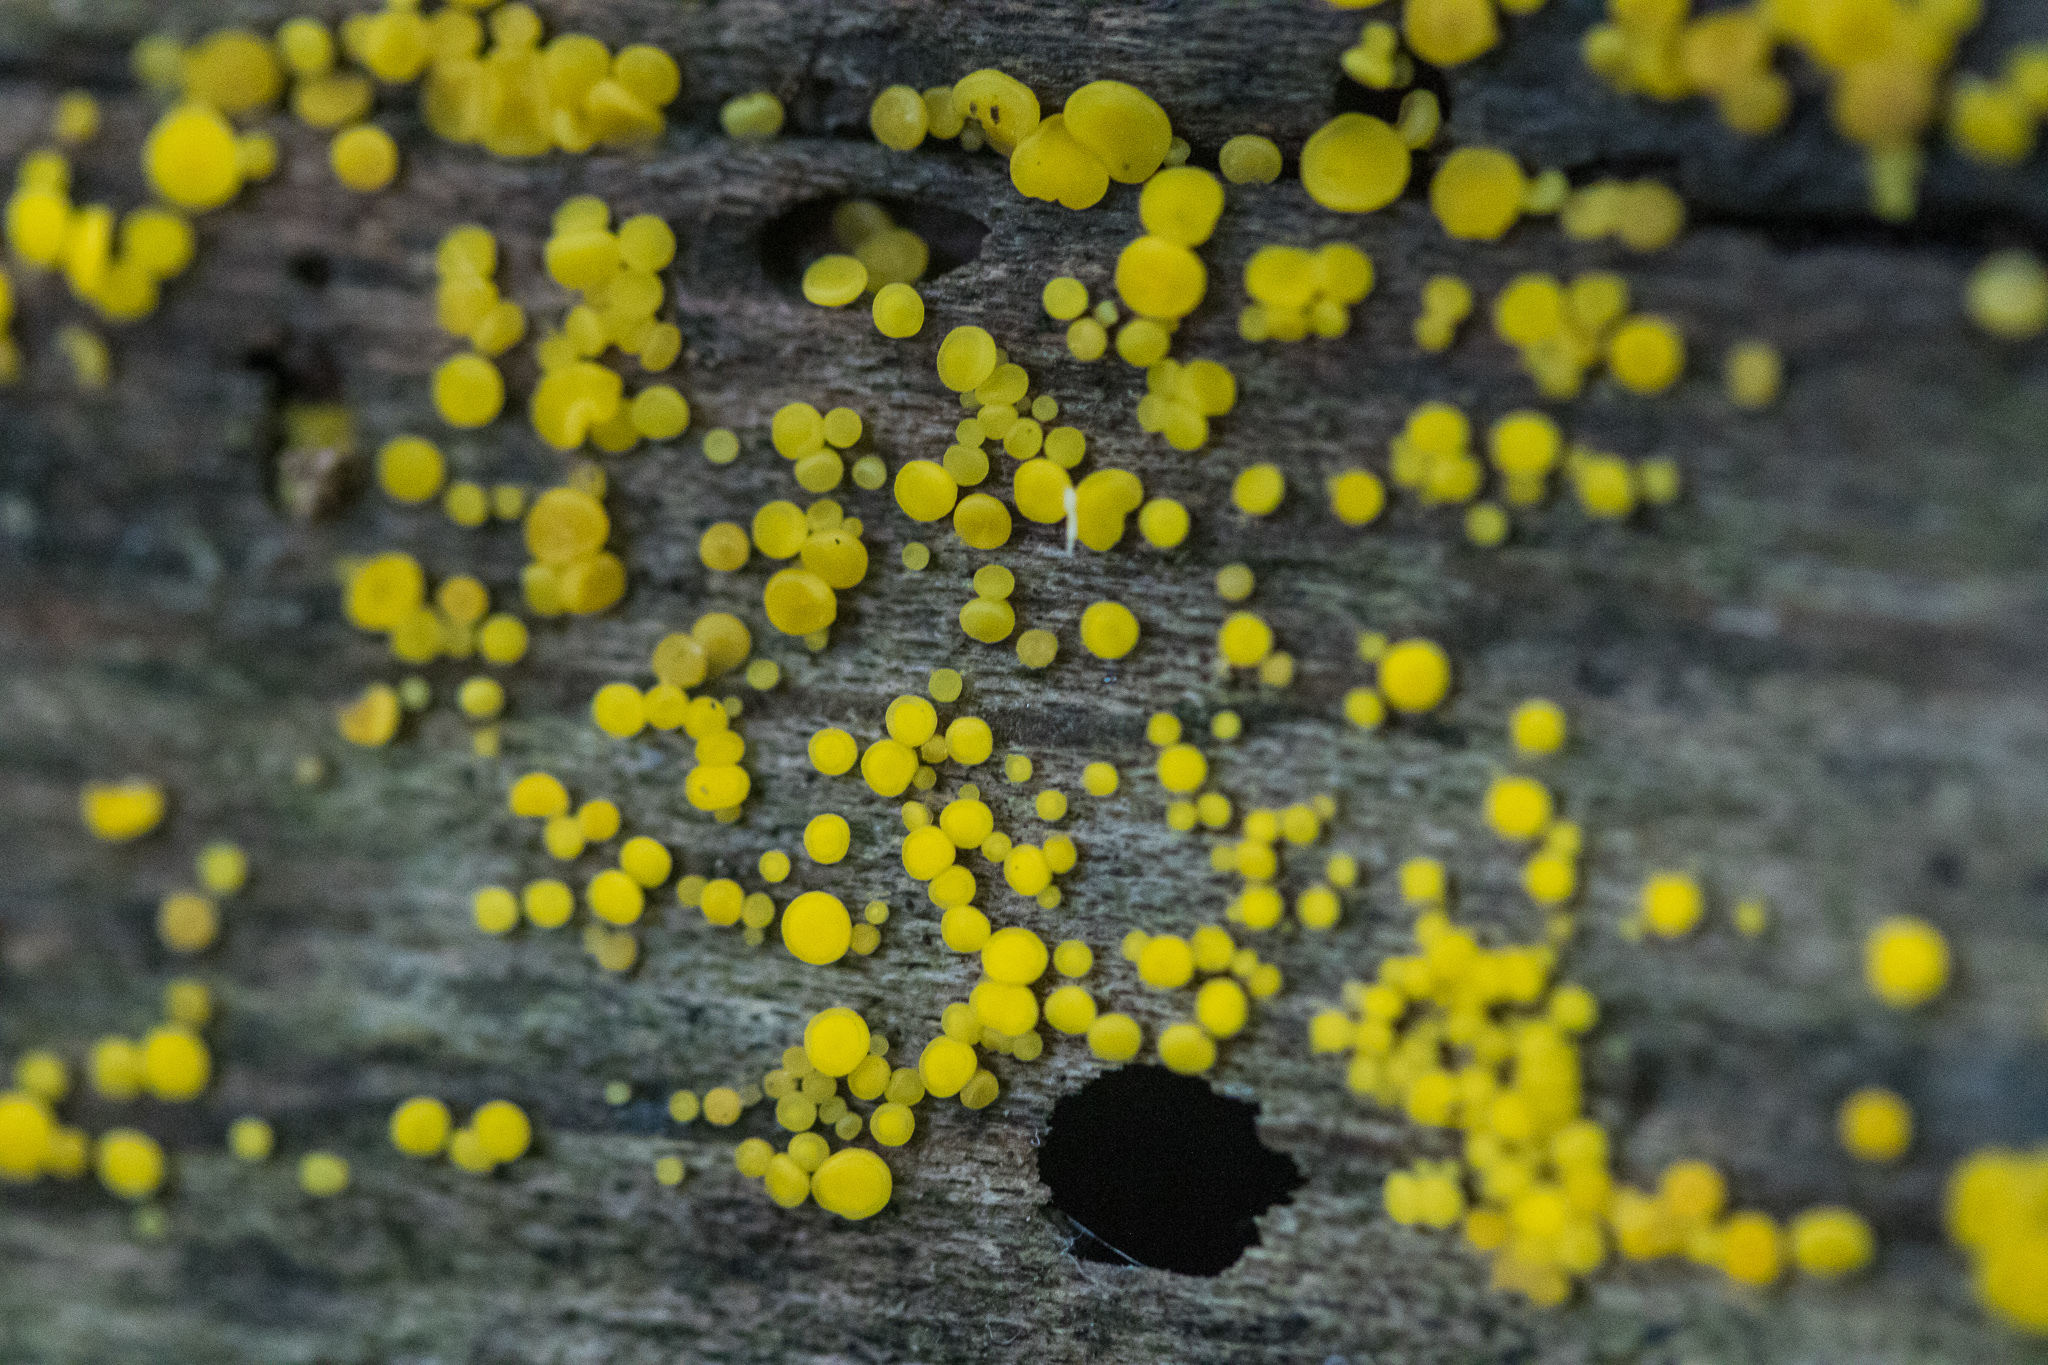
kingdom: Fungi
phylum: Ascomycota
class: Leotiomycetes
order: Helotiales
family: Pezizellaceae
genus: Calycina
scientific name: Calycina citrina
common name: Yellow fairy cups
